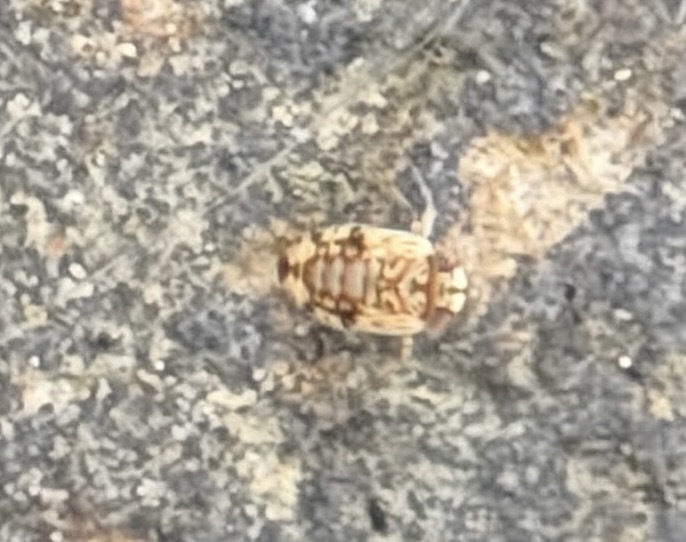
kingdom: Animalia
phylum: Arthropoda
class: Insecta
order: Hemiptera
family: Micronectidae
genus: Micronecta
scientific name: Micronecta
